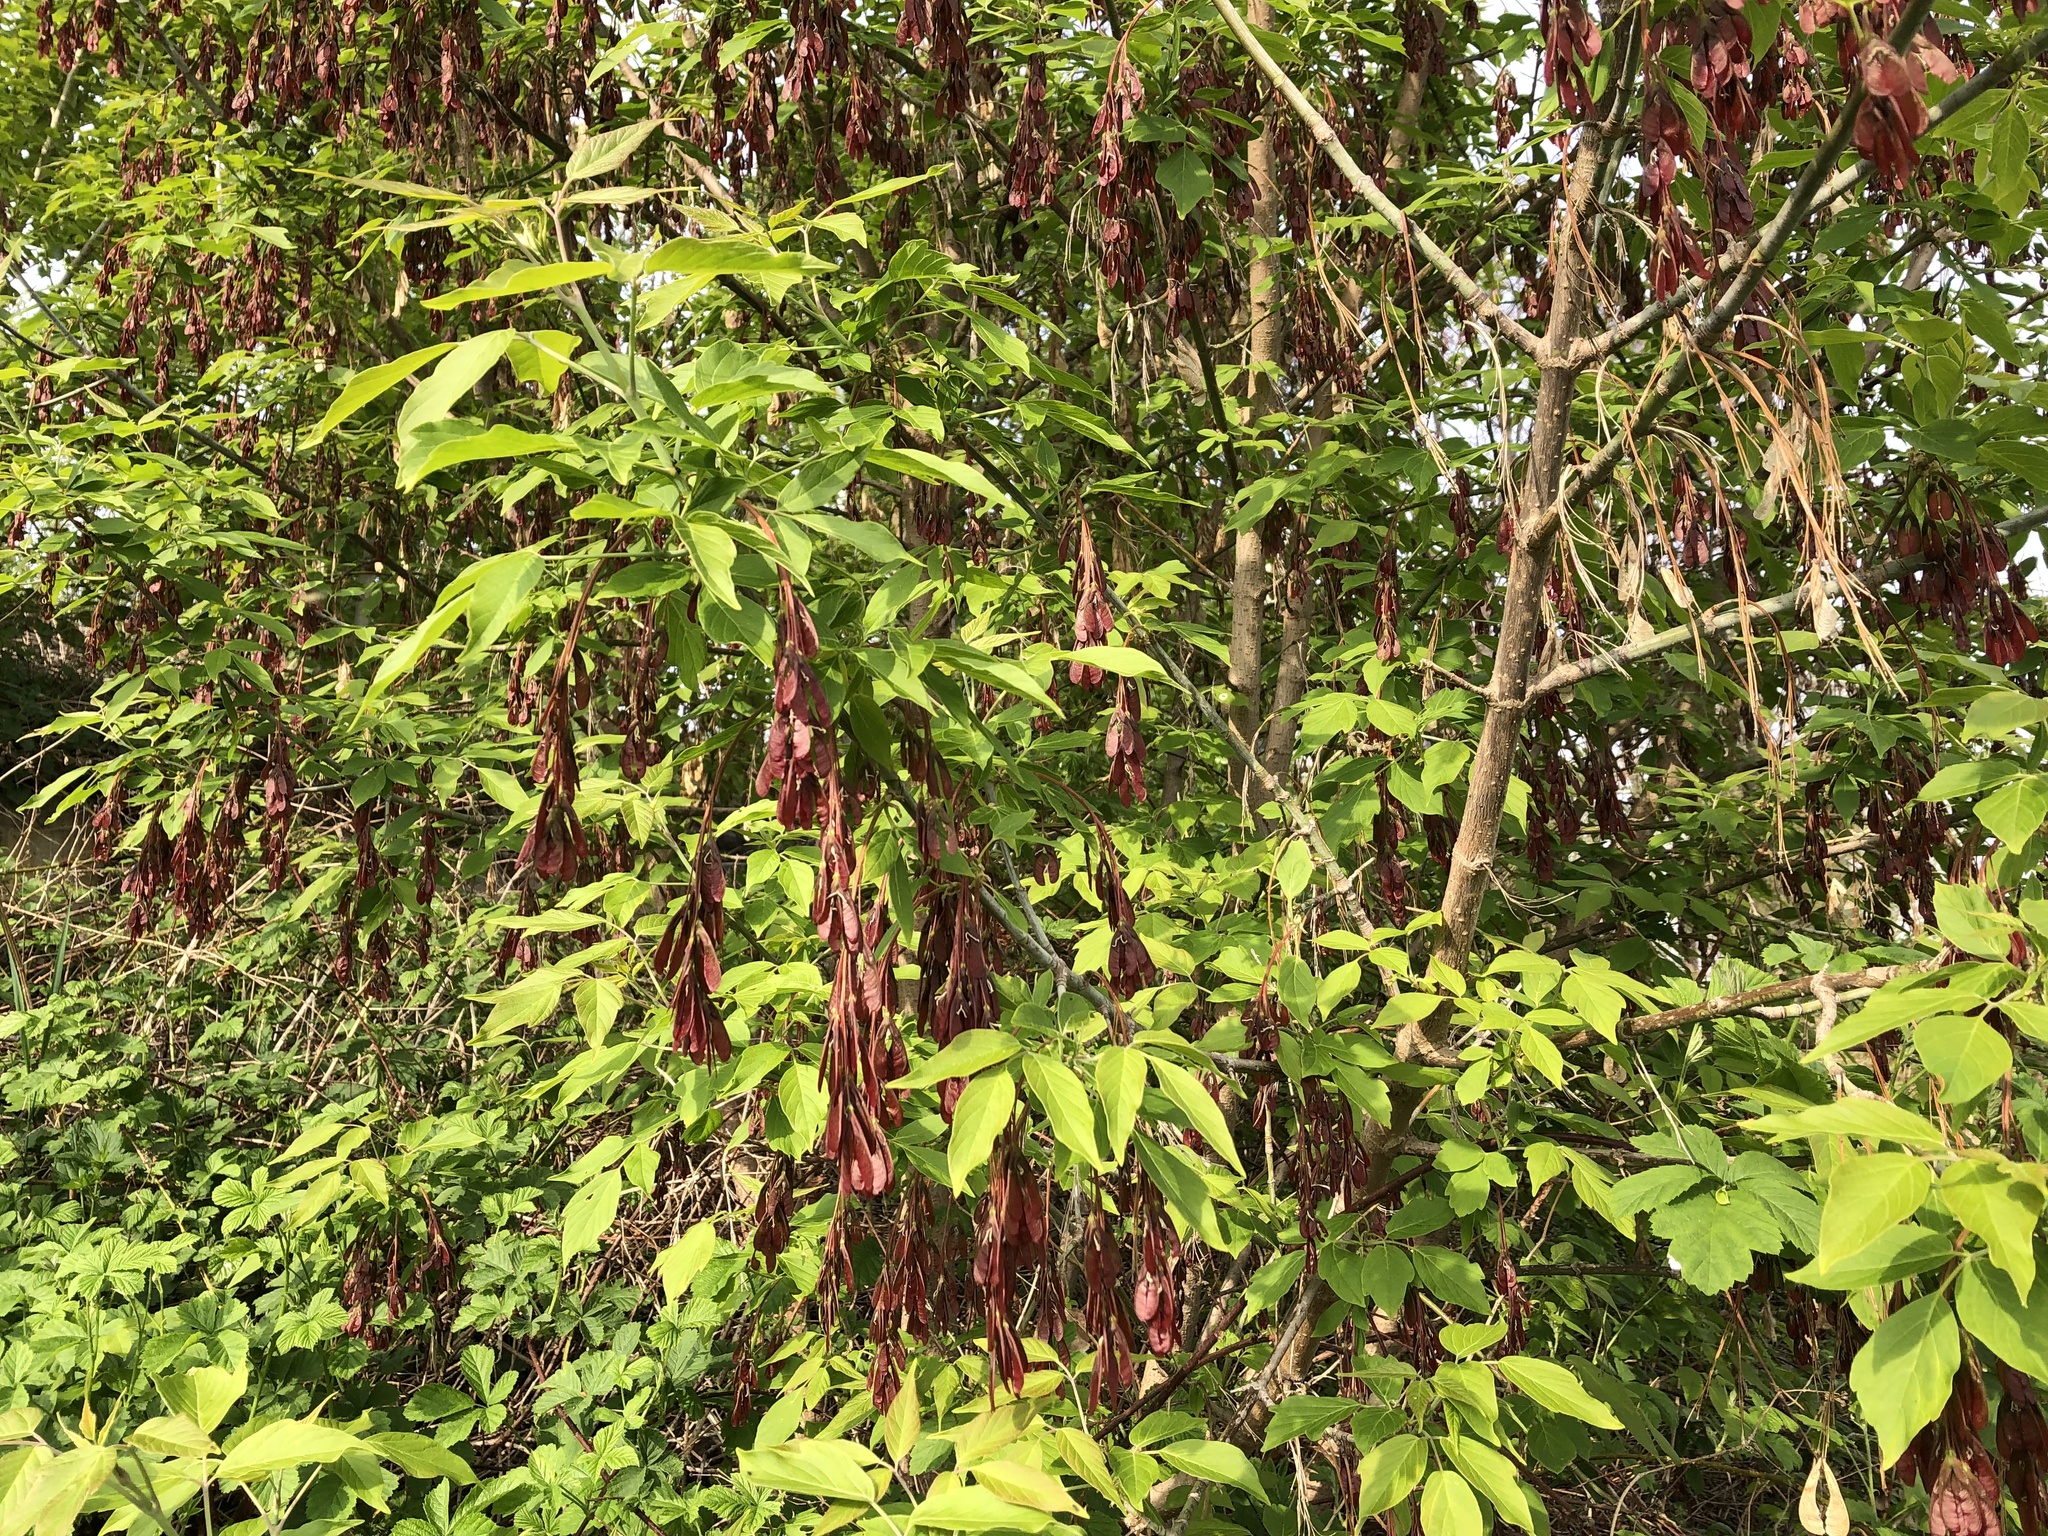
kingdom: Plantae
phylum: Tracheophyta
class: Magnoliopsida
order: Sapindales
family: Sapindaceae
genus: Acer
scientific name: Acer negundo
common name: Ashleaf maple
